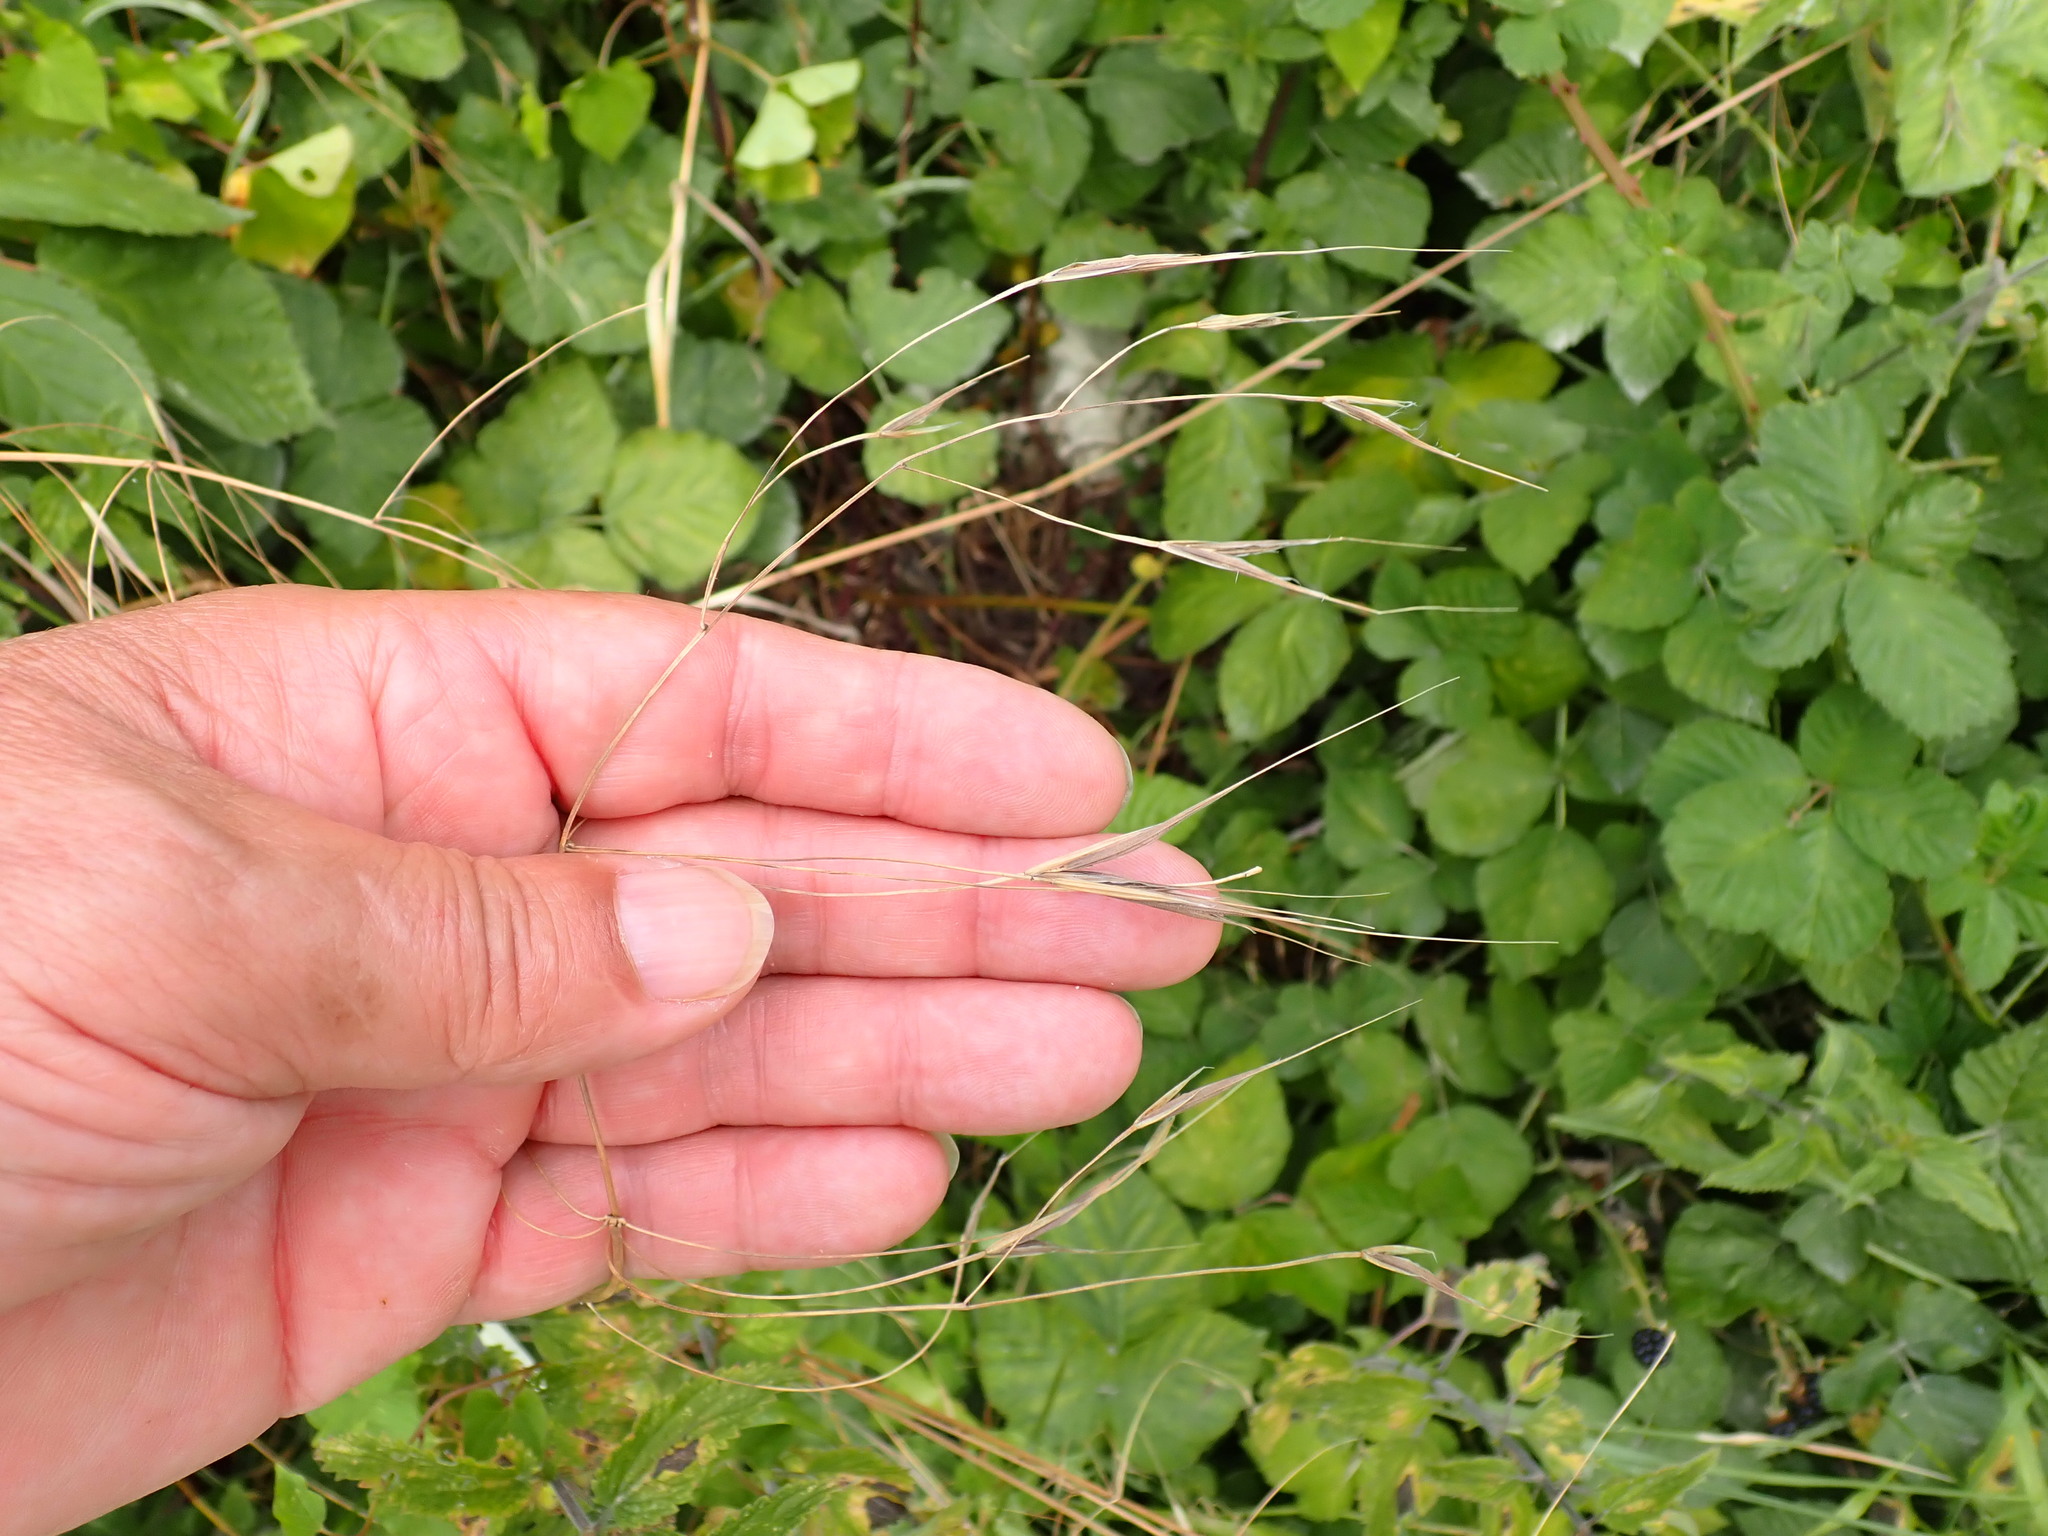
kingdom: Plantae
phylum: Tracheophyta
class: Liliopsida
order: Poales
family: Poaceae
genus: Bromus
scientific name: Bromus sterilis
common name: Poverty brome
